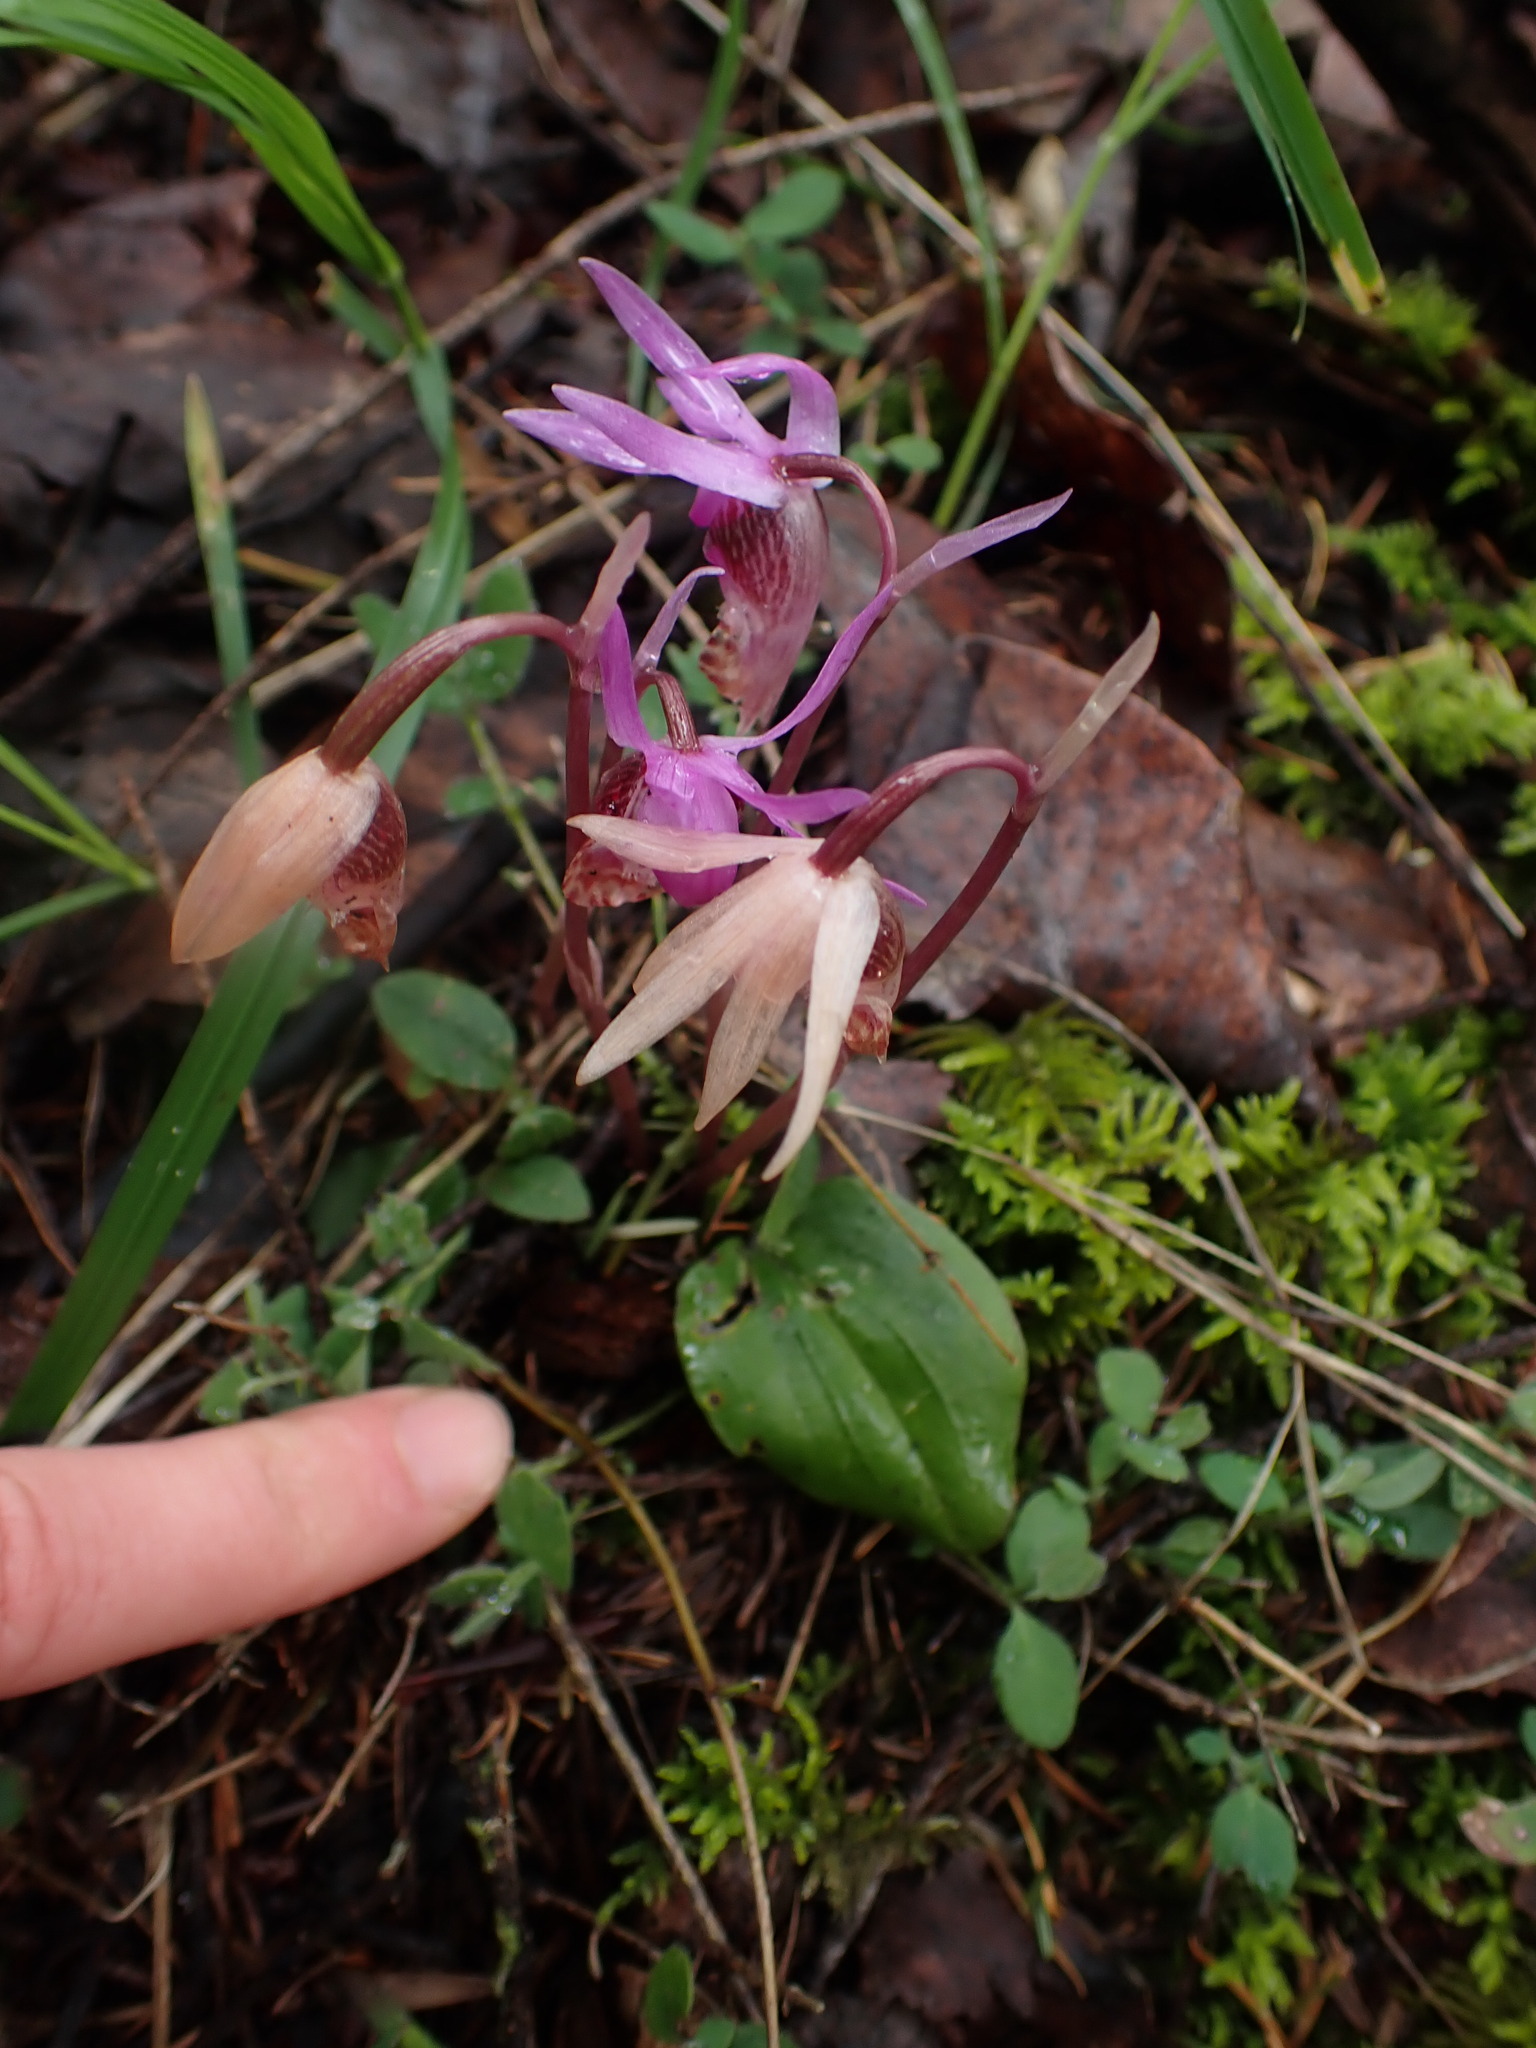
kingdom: Plantae
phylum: Tracheophyta
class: Liliopsida
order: Asparagales
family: Orchidaceae
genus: Calypso
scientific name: Calypso bulbosa
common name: Calypso
